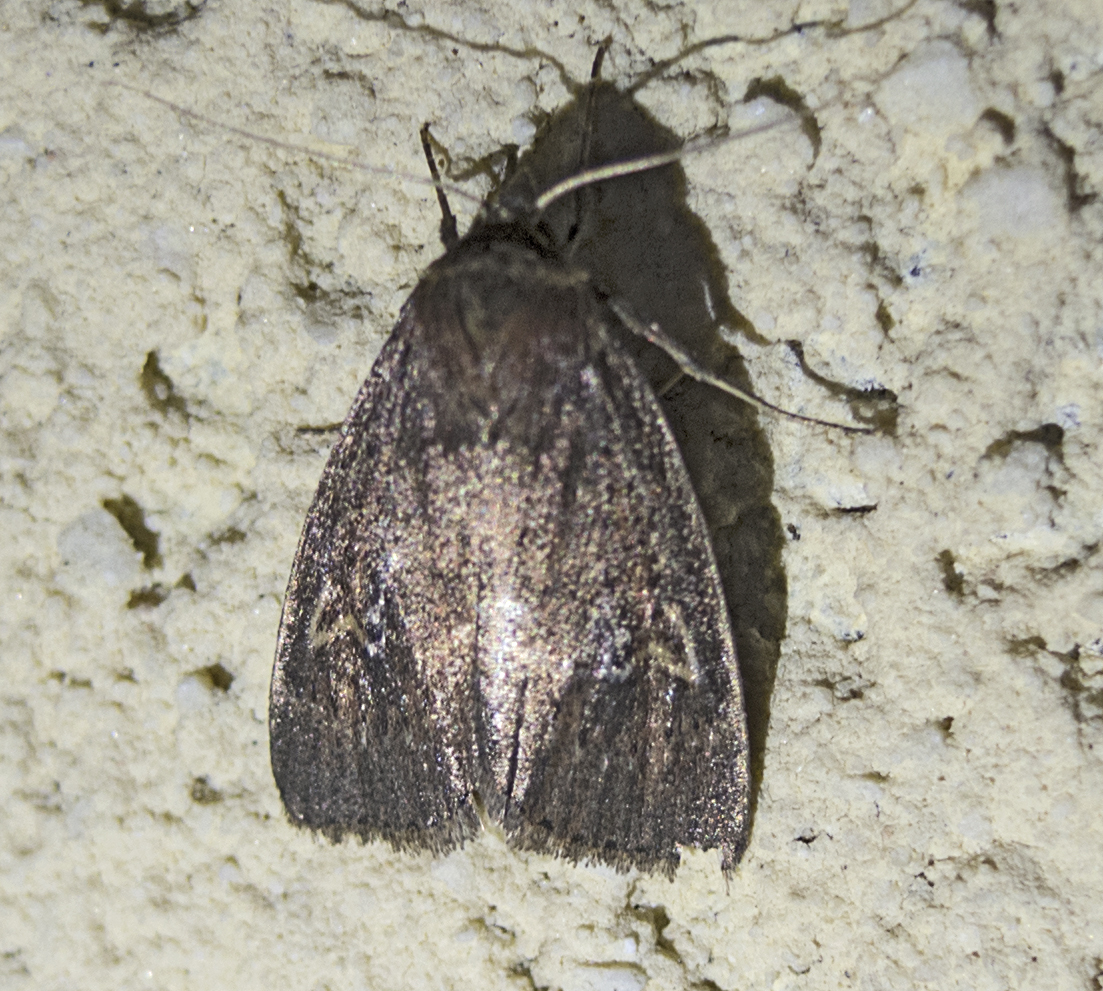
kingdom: Animalia
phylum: Arthropoda
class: Insecta
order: Lepidoptera
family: Noctuidae
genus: Archanara
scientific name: Archanara dissoluta
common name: Brown-veined wainscot
